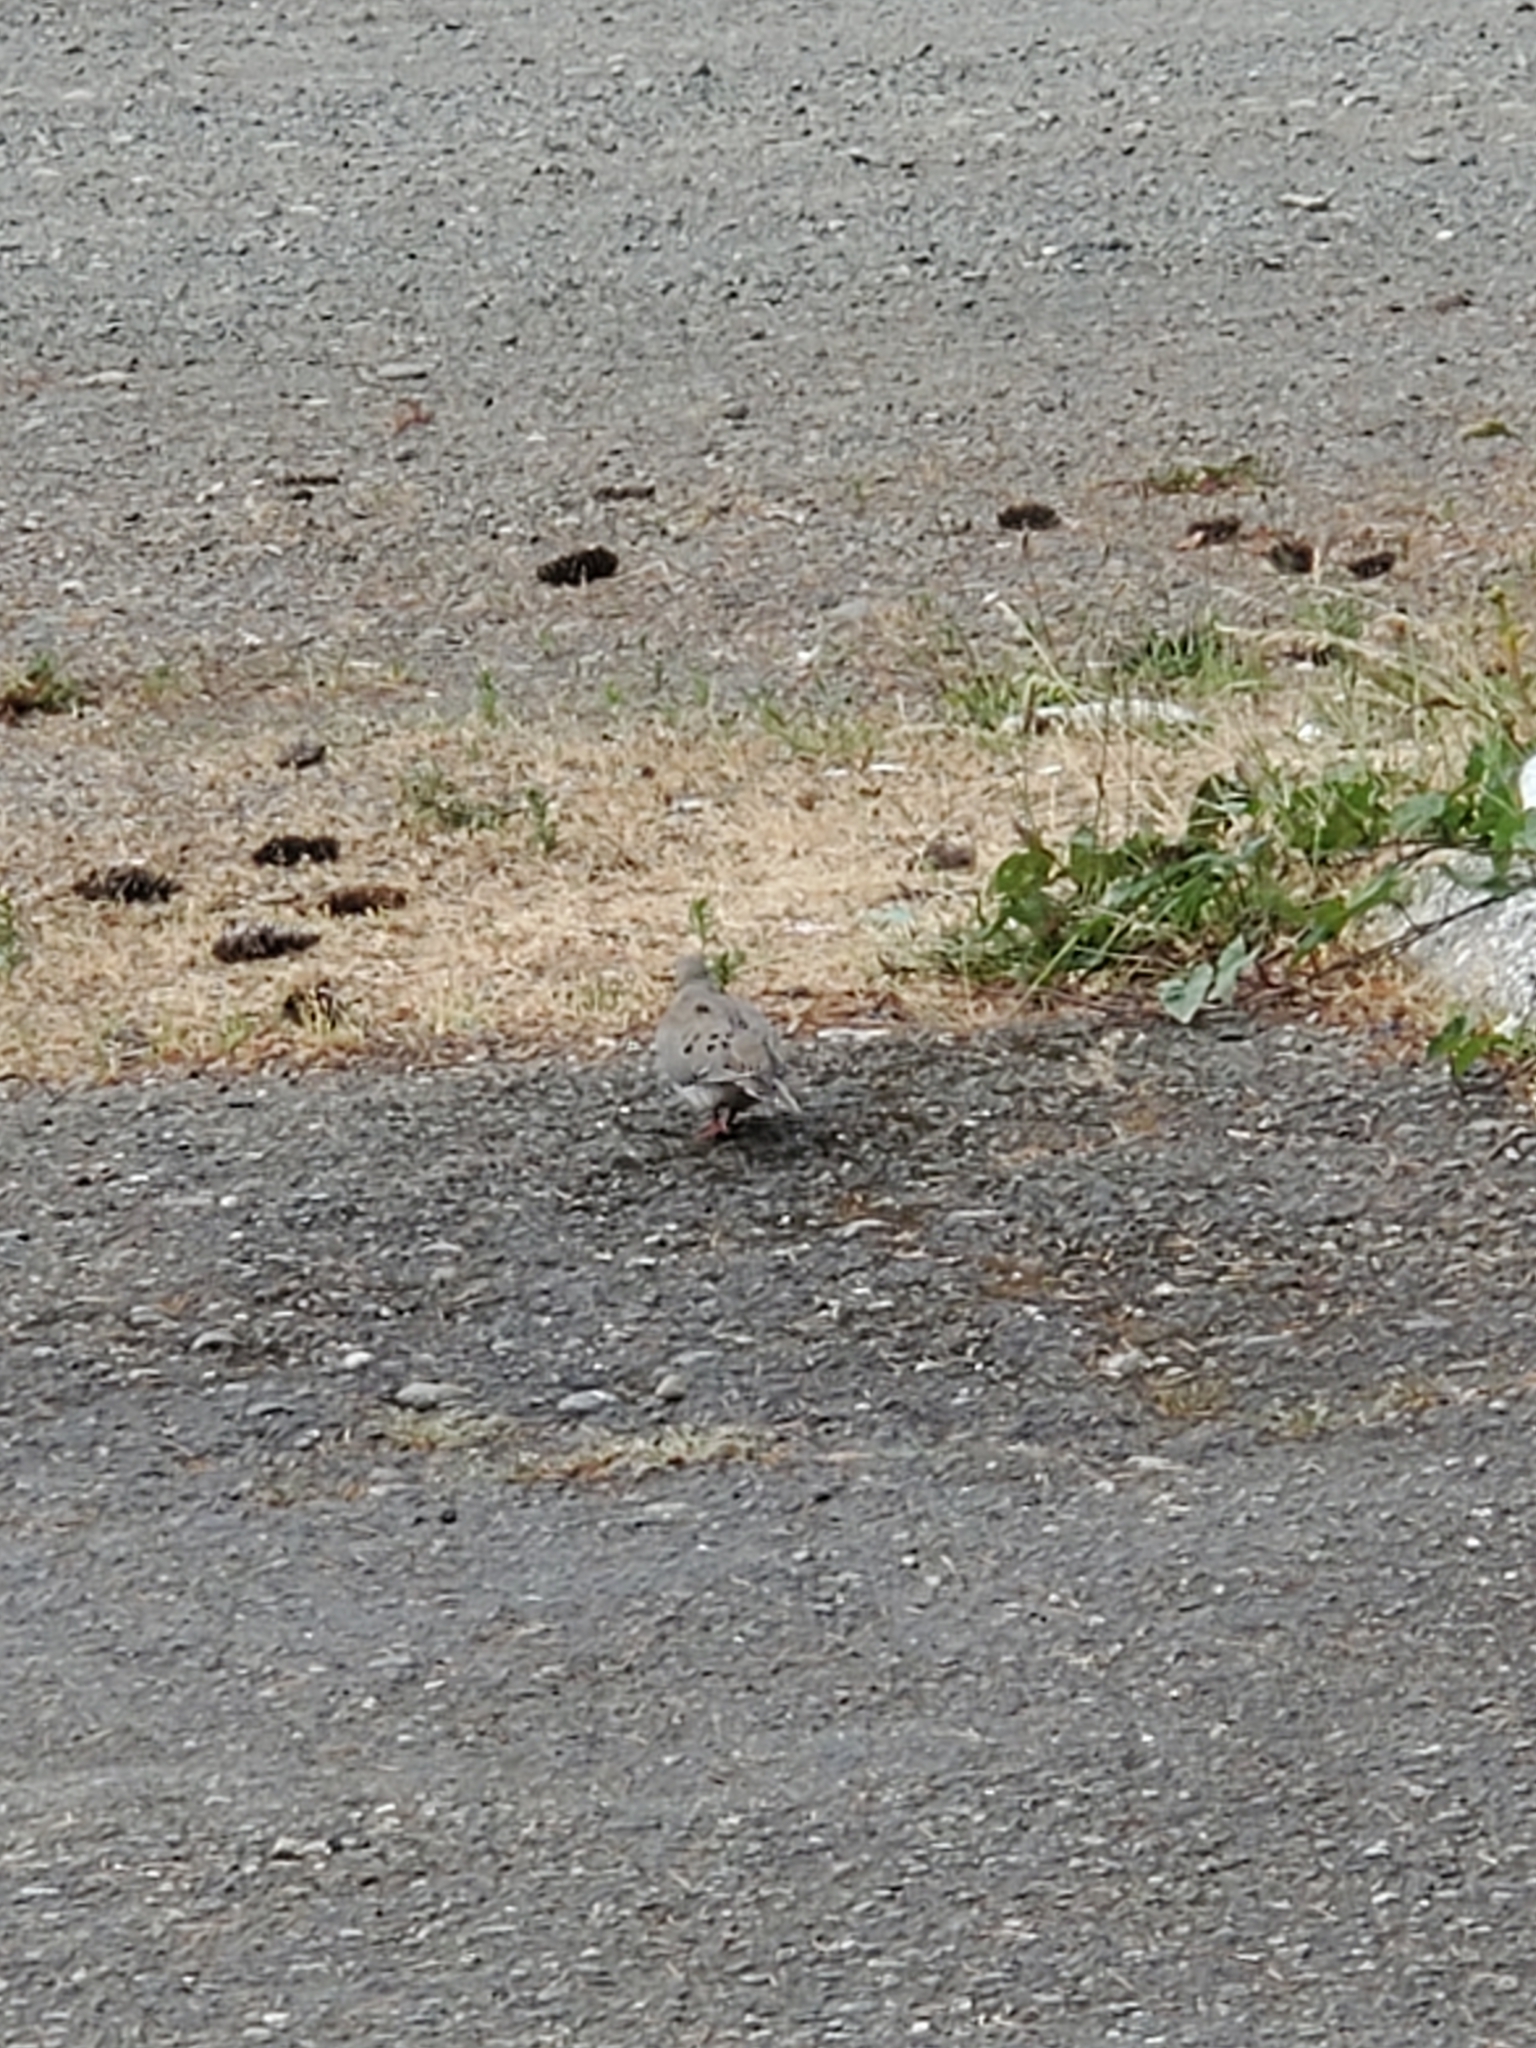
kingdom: Animalia
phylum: Chordata
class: Aves
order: Columbiformes
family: Columbidae
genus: Zenaida
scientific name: Zenaida macroura
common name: Mourning dove
